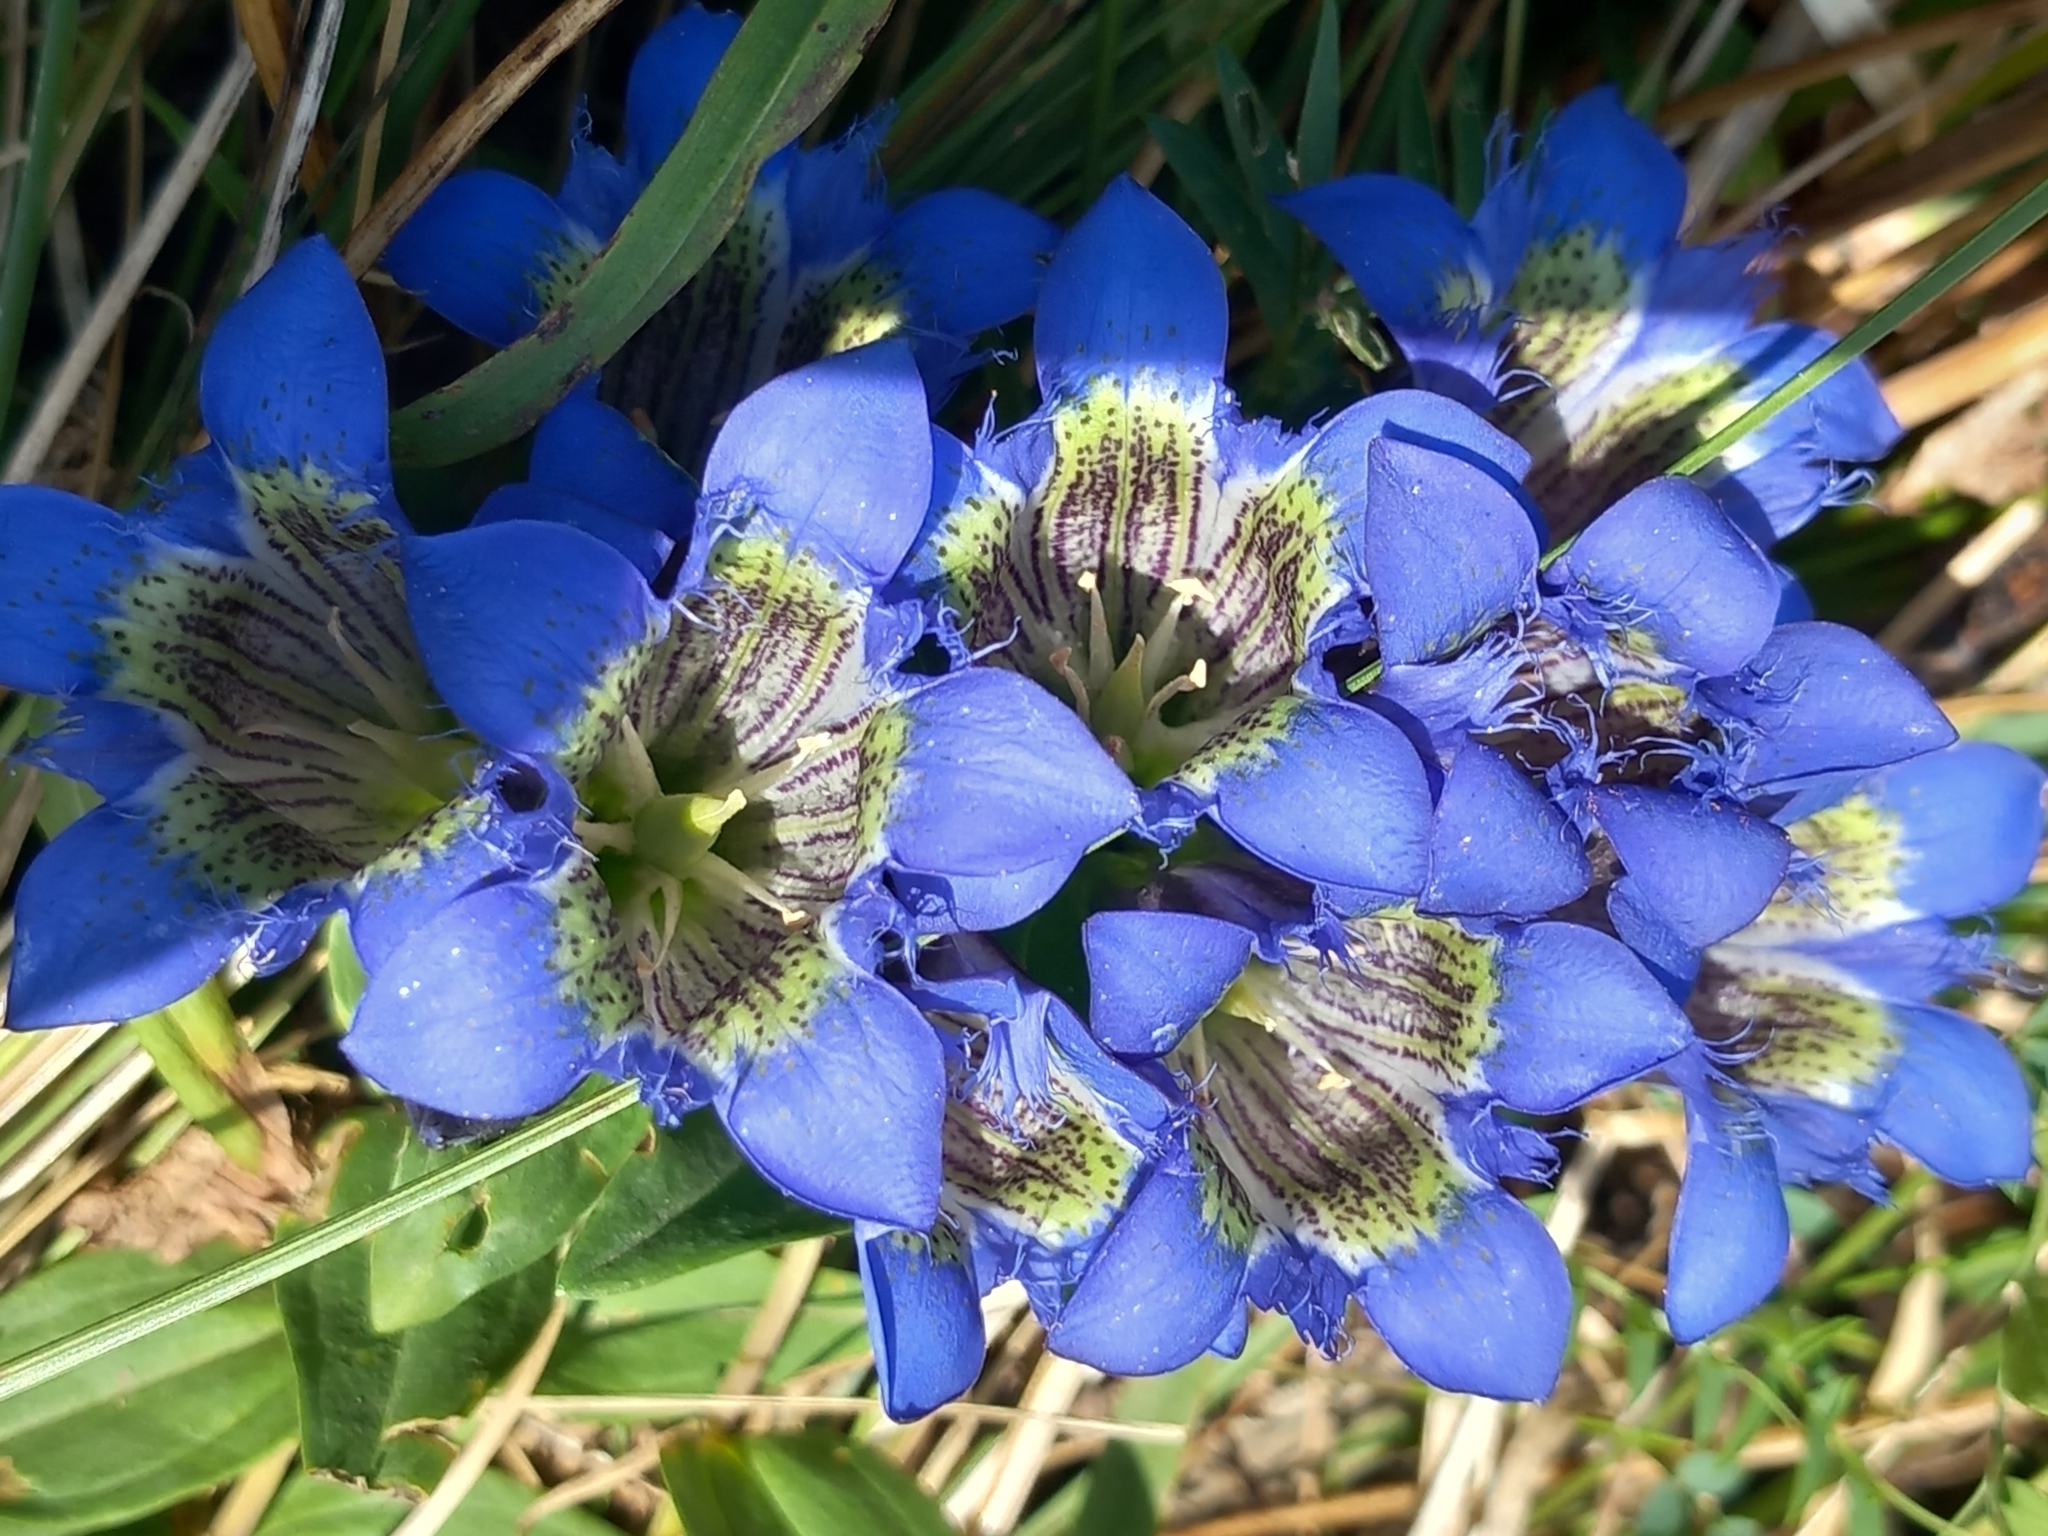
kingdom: Plantae
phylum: Tracheophyta
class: Magnoliopsida
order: Gentianales
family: Gentianaceae
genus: Gentiana
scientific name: Gentiana septemfida
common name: Crested gentian
